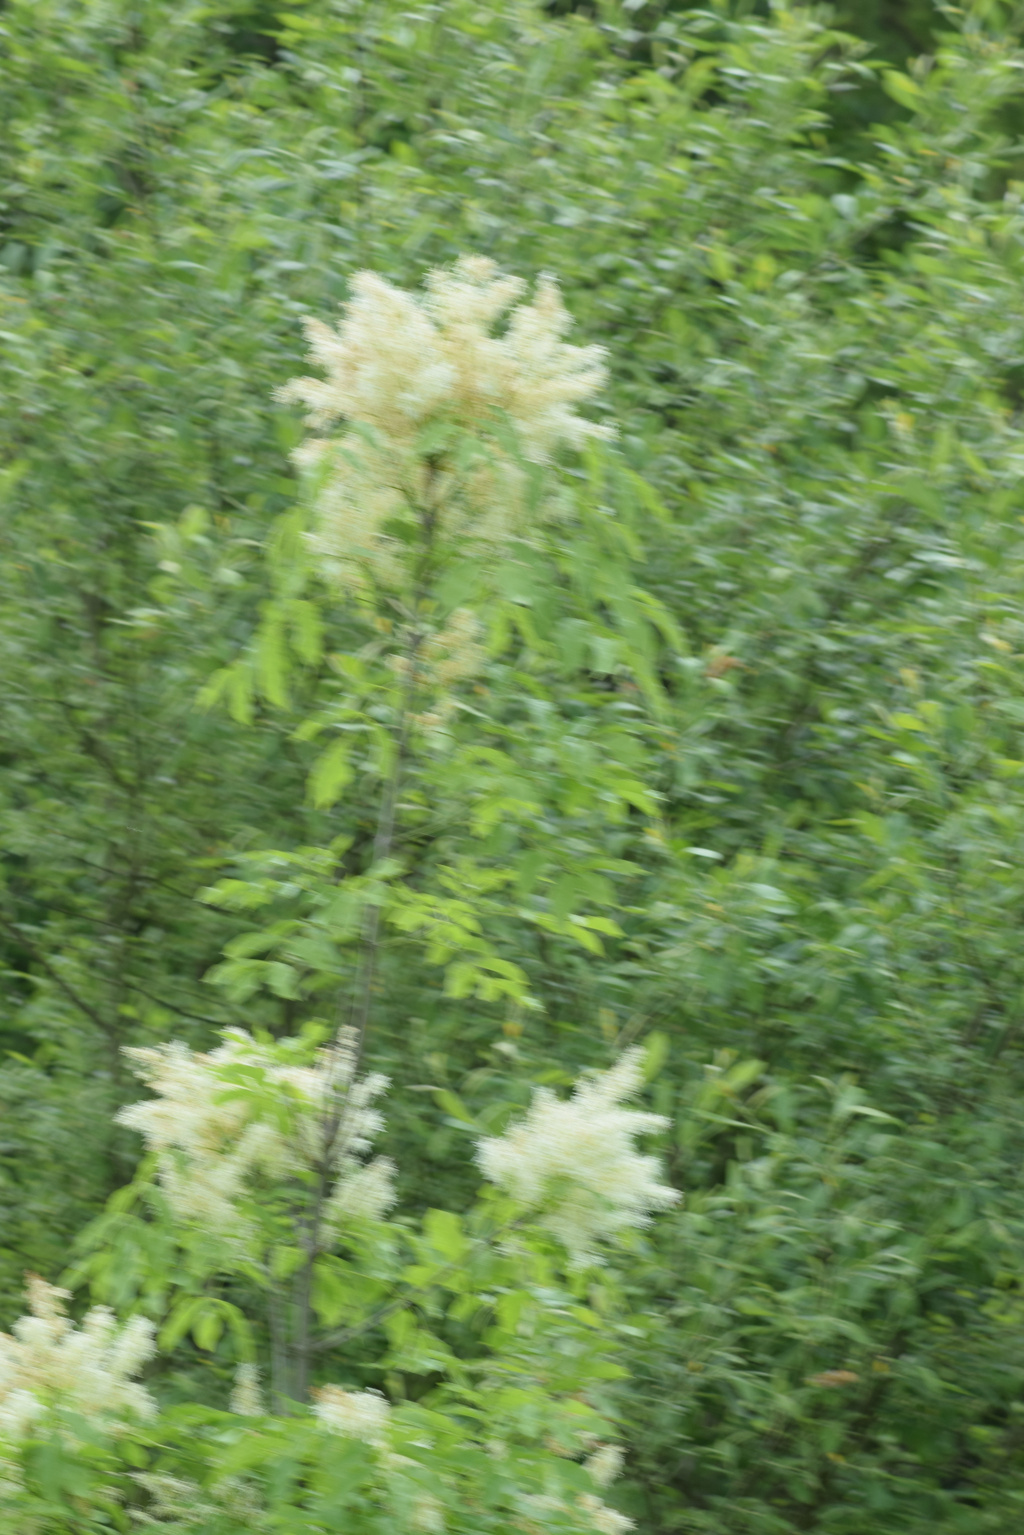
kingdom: Plantae
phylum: Tracheophyta
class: Magnoliopsida
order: Lamiales
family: Oleaceae
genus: Fraxinus
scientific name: Fraxinus ornus
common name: Manna ash
